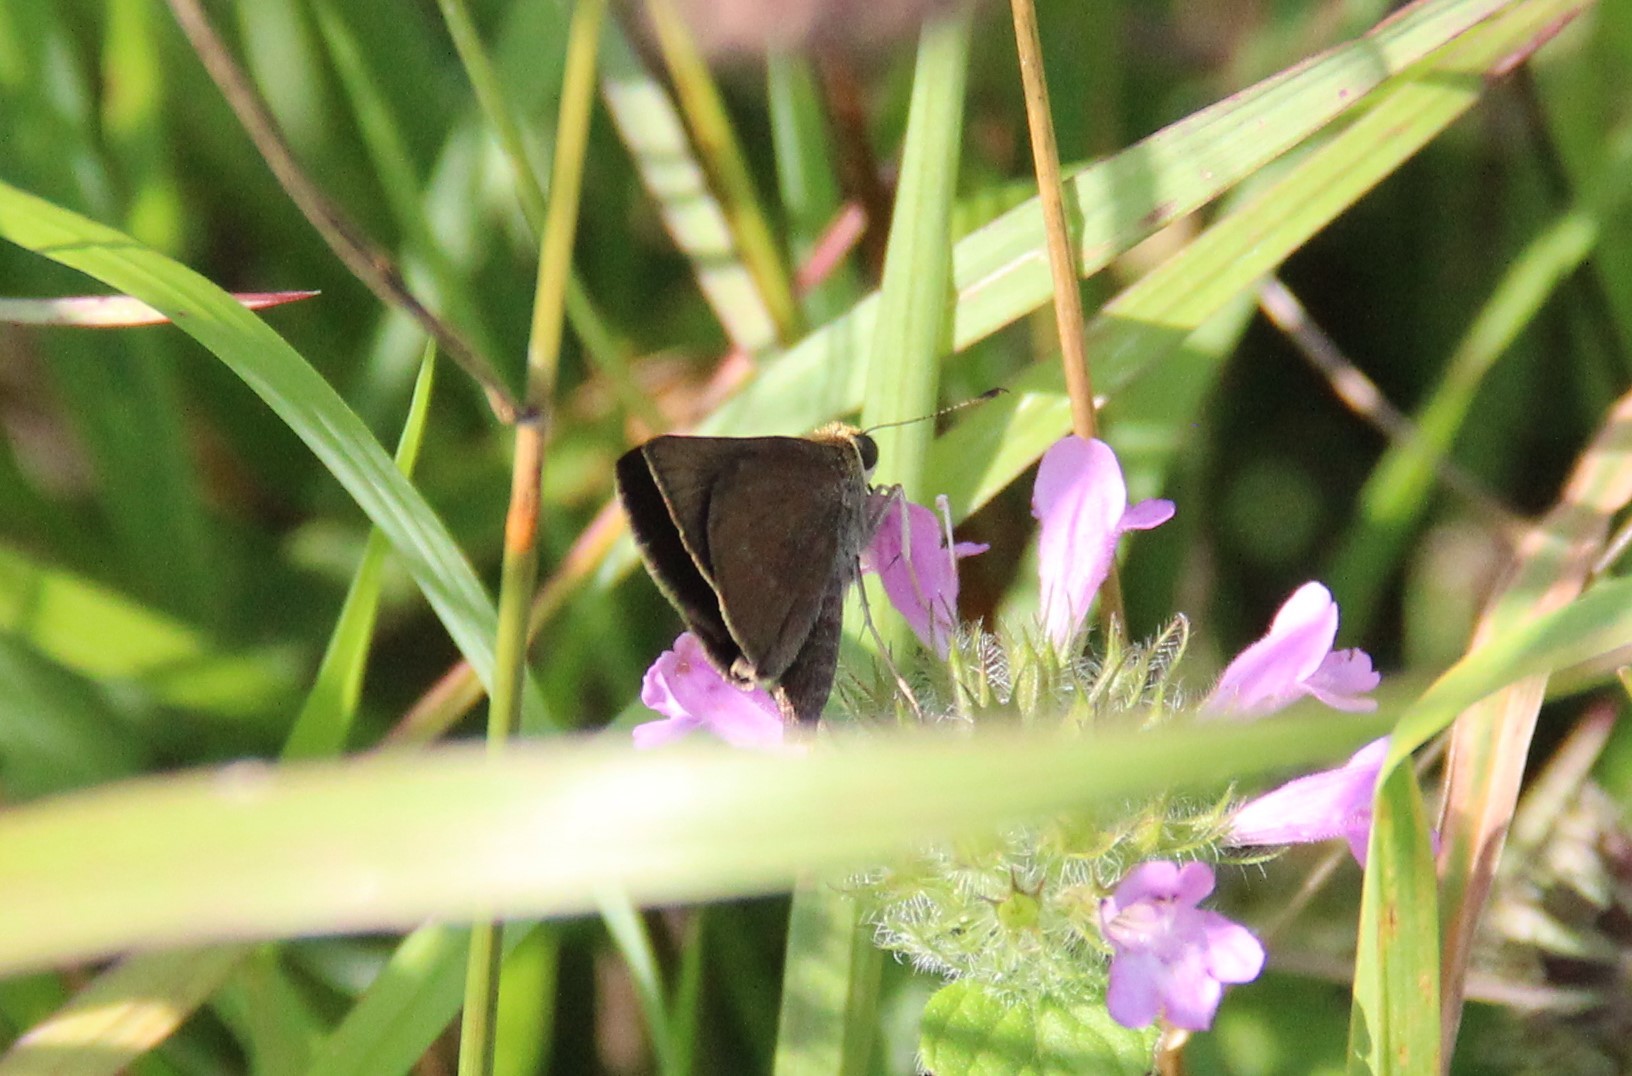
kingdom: Animalia
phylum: Arthropoda
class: Insecta
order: Lepidoptera
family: Hesperiidae
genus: Euphyes
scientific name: Euphyes vestris
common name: Dun skipper
